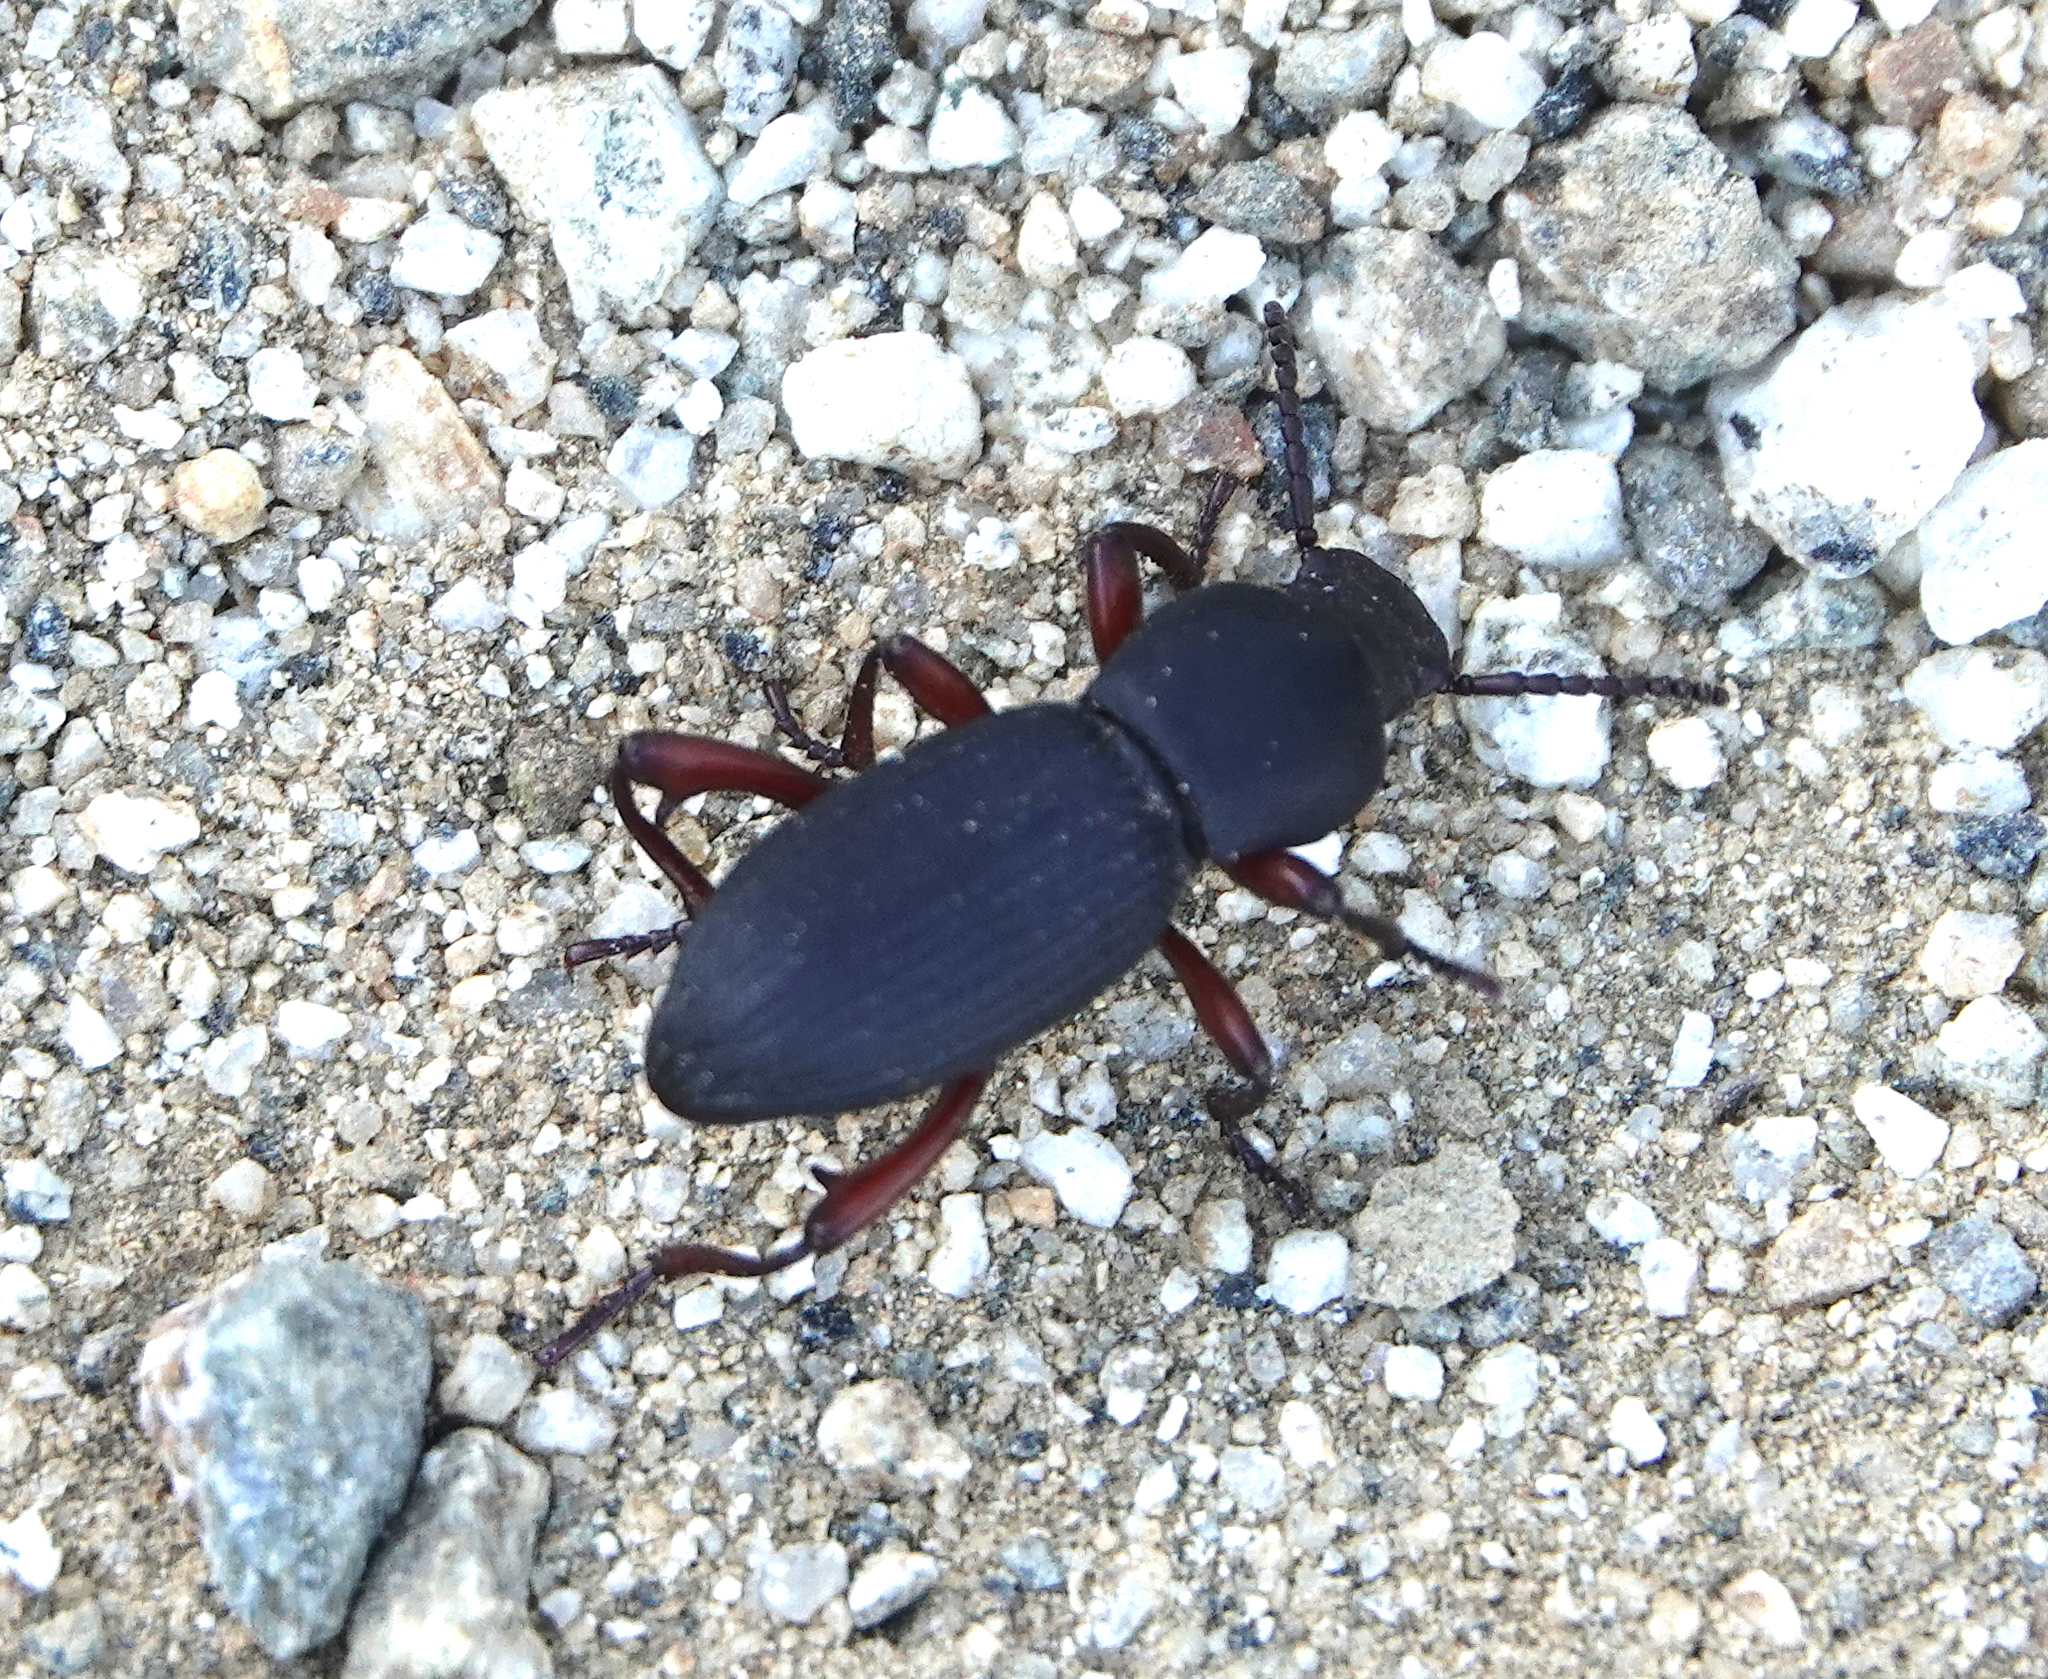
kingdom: Animalia
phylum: Arthropoda
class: Insecta
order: Coleoptera
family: Tenebrionidae
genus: Argoporis
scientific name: Argoporis apicalis
